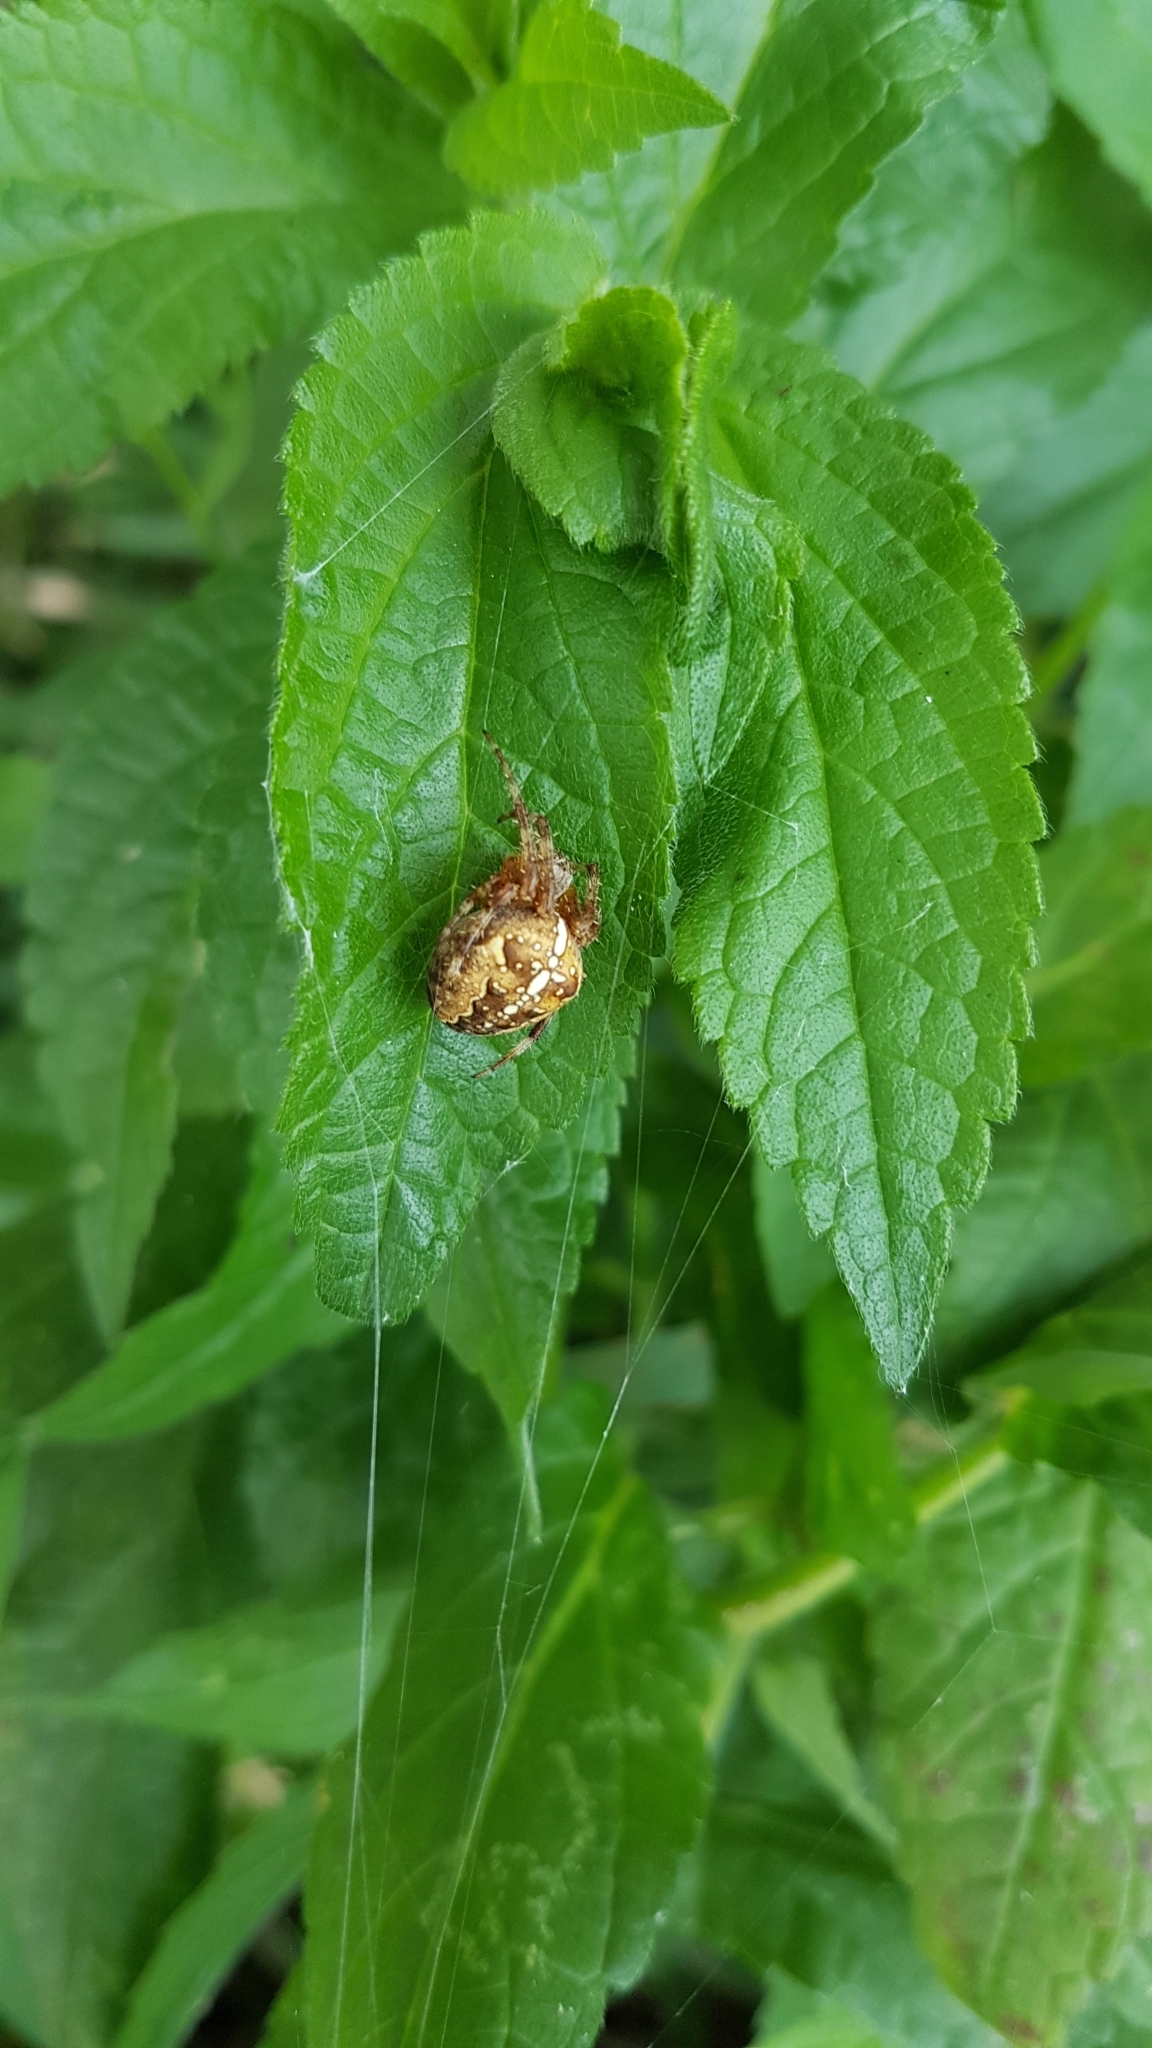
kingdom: Animalia
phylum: Arthropoda
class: Arachnida
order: Araneae
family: Araneidae
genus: Araneus
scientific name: Araneus diadematus
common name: Cross orbweaver
